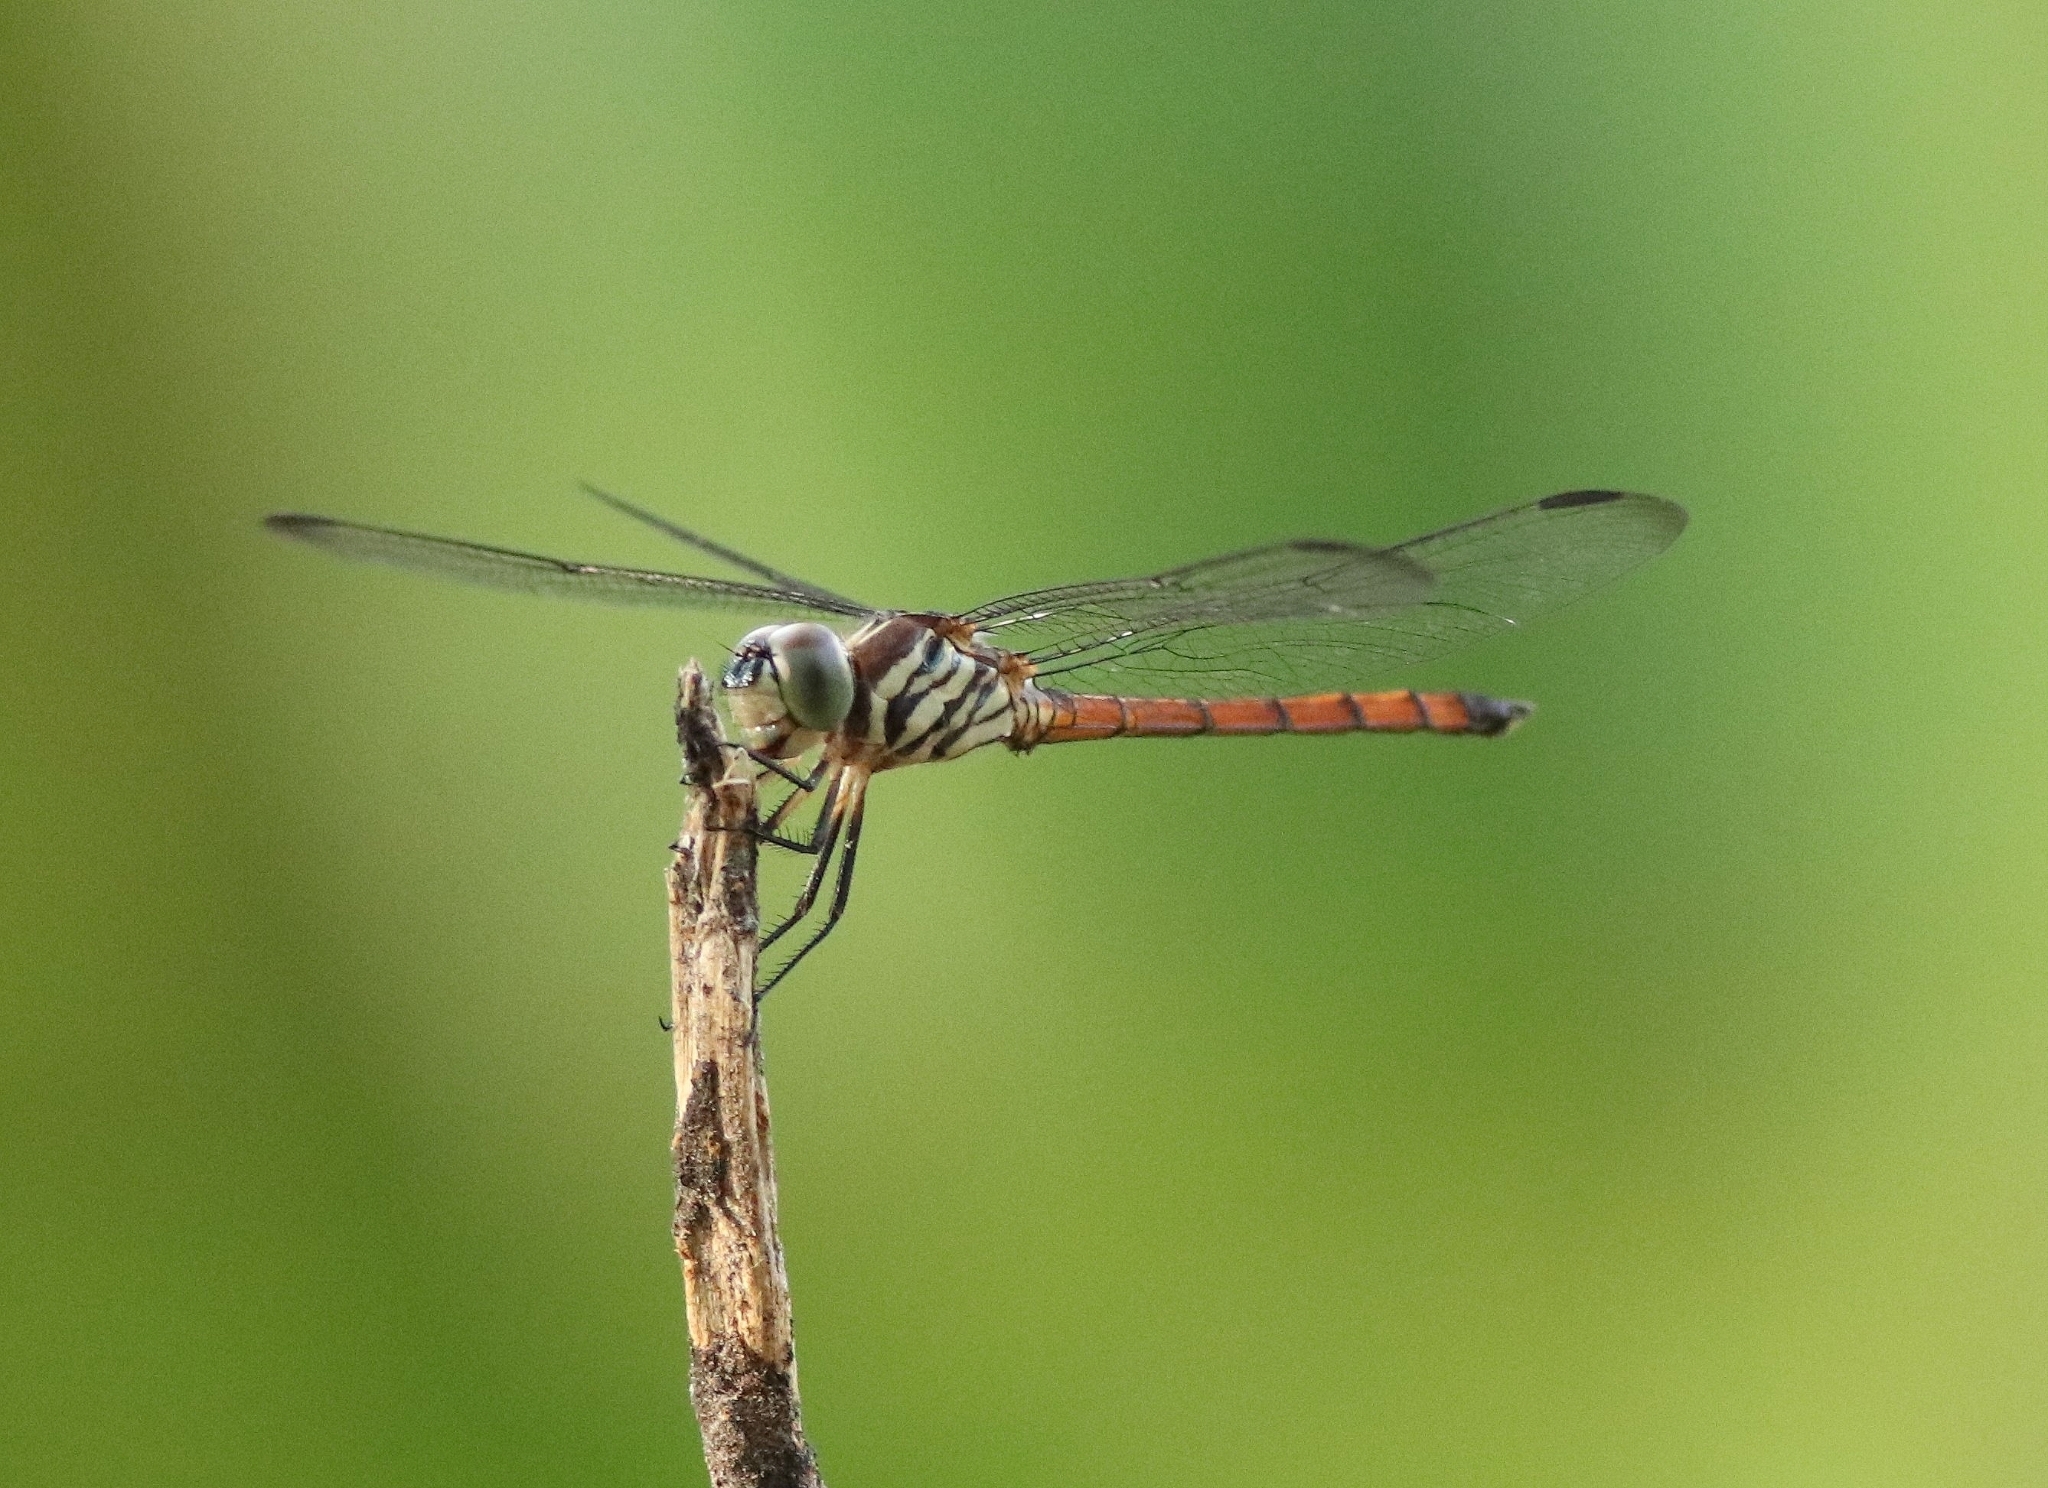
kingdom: Animalia
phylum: Arthropoda
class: Insecta
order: Odonata
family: Libellulidae
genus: Lathrecista
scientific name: Lathrecista asiatica
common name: Scarlet grenadier
